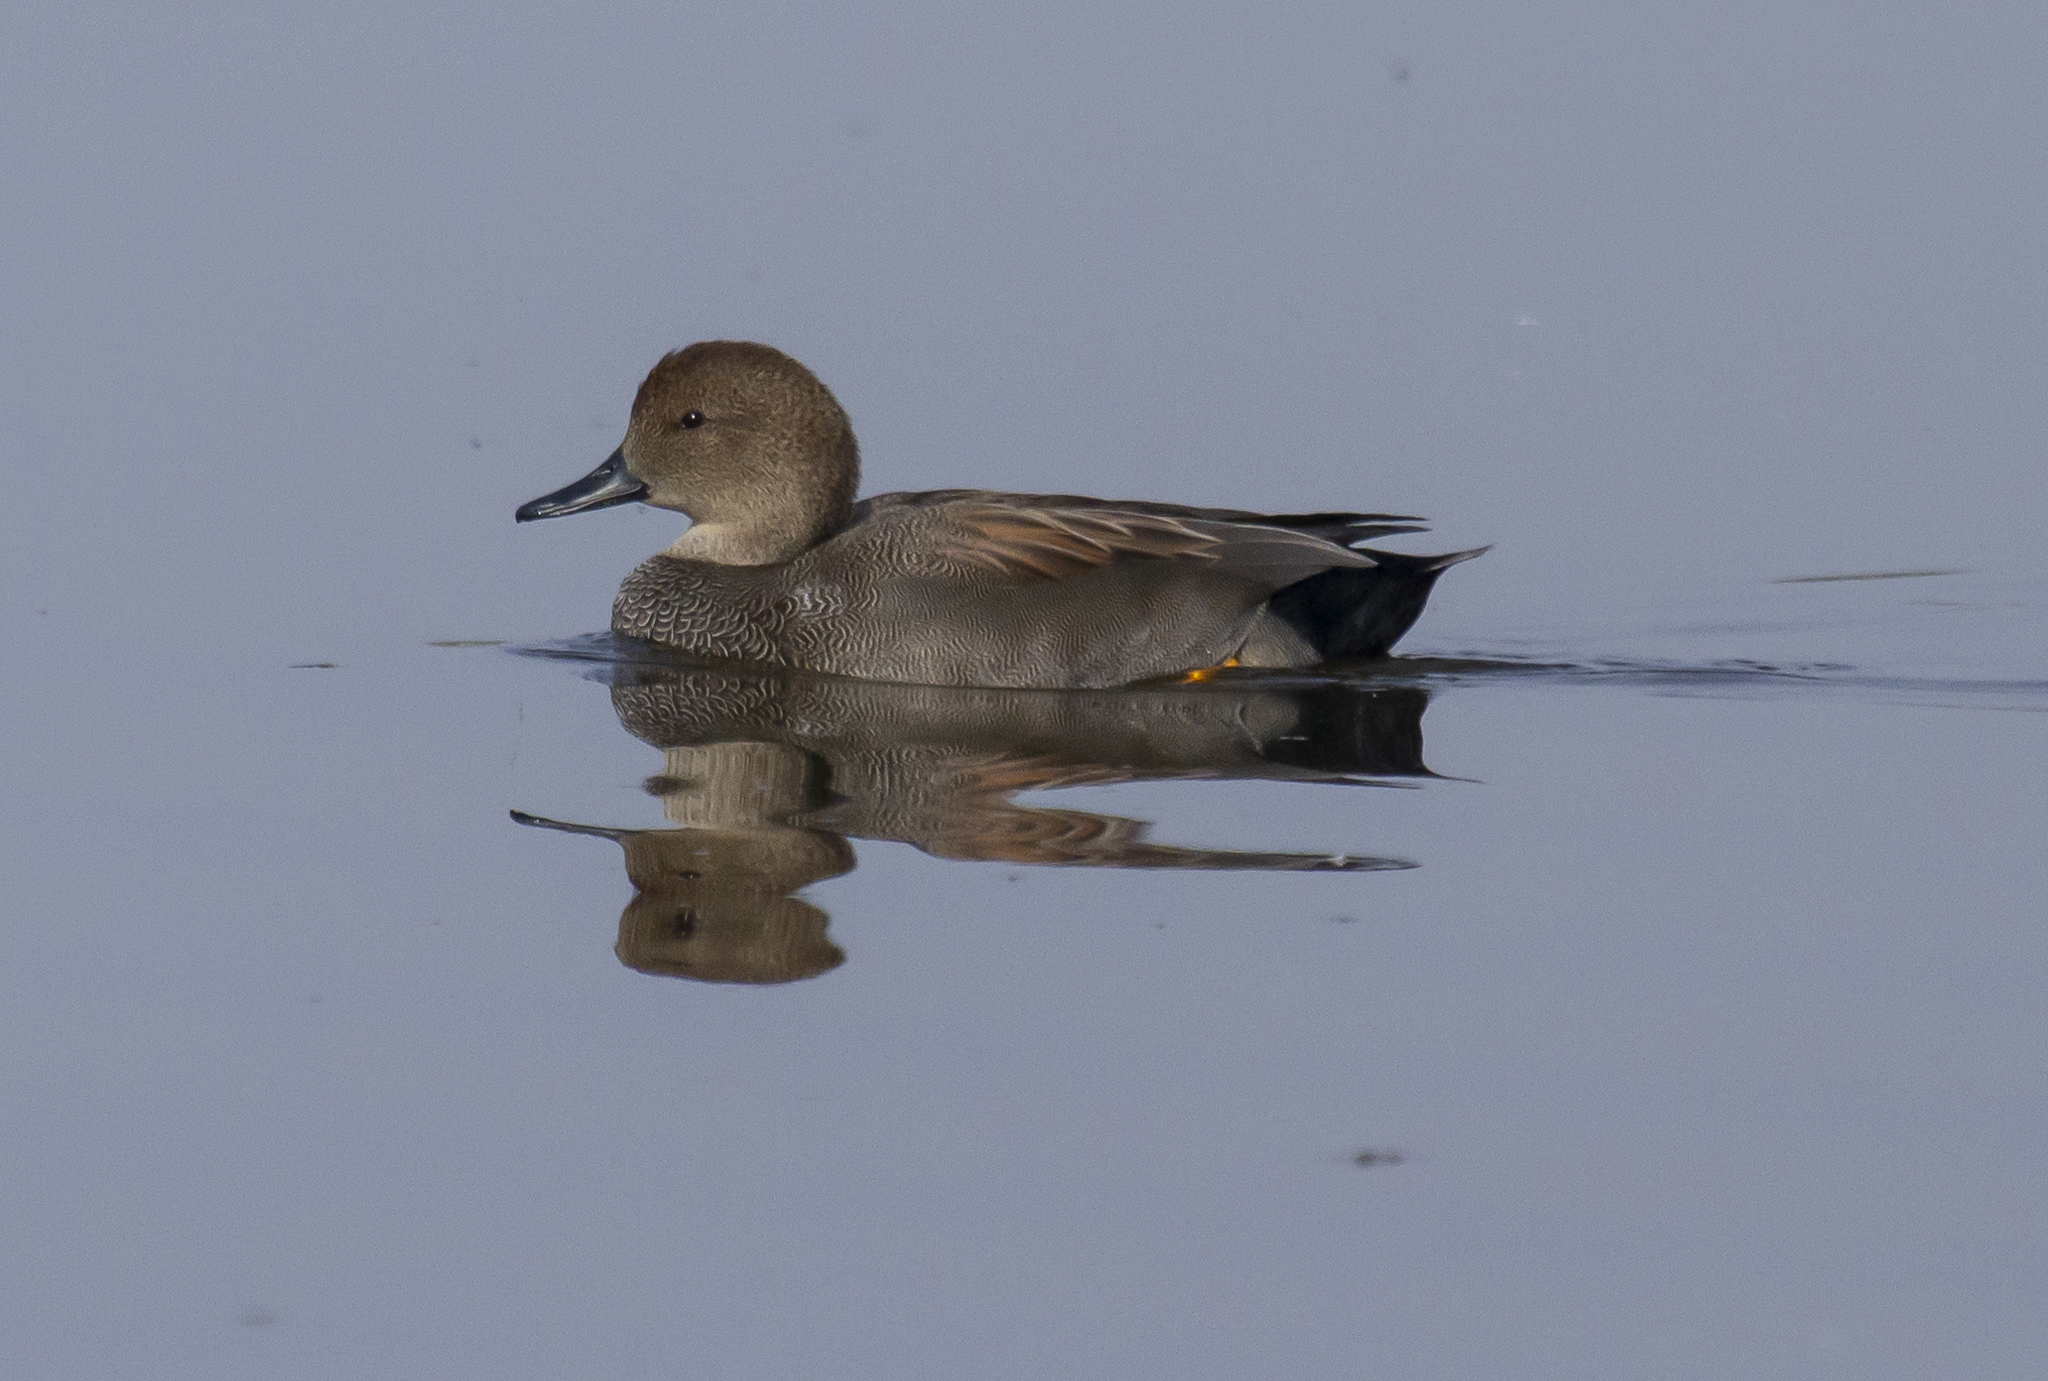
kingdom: Animalia
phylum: Chordata
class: Aves
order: Anseriformes
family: Anatidae
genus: Mareca
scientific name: Mareca strepera
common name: Gadwall
